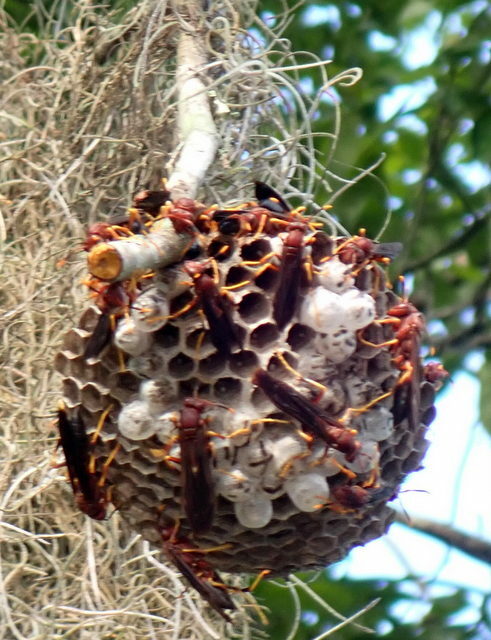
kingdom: Animalia
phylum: Arthropoda
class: Insecta
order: Hymenoptera
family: Eumenidae
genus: Polistes
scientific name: Polistes annularis
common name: Ringed paper wasp
